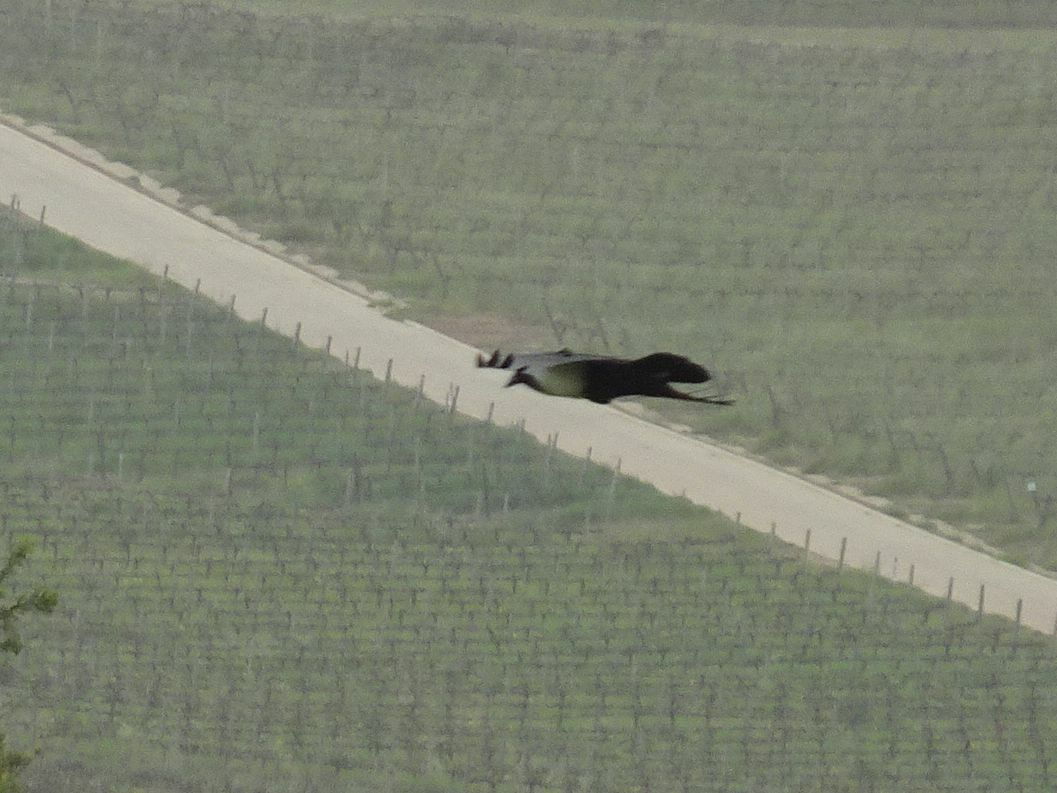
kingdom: Animalia
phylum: Chordata
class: Aves
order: Passeriformes
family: Corvidae
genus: Corvus
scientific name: Corvus albus
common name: Pied crow
